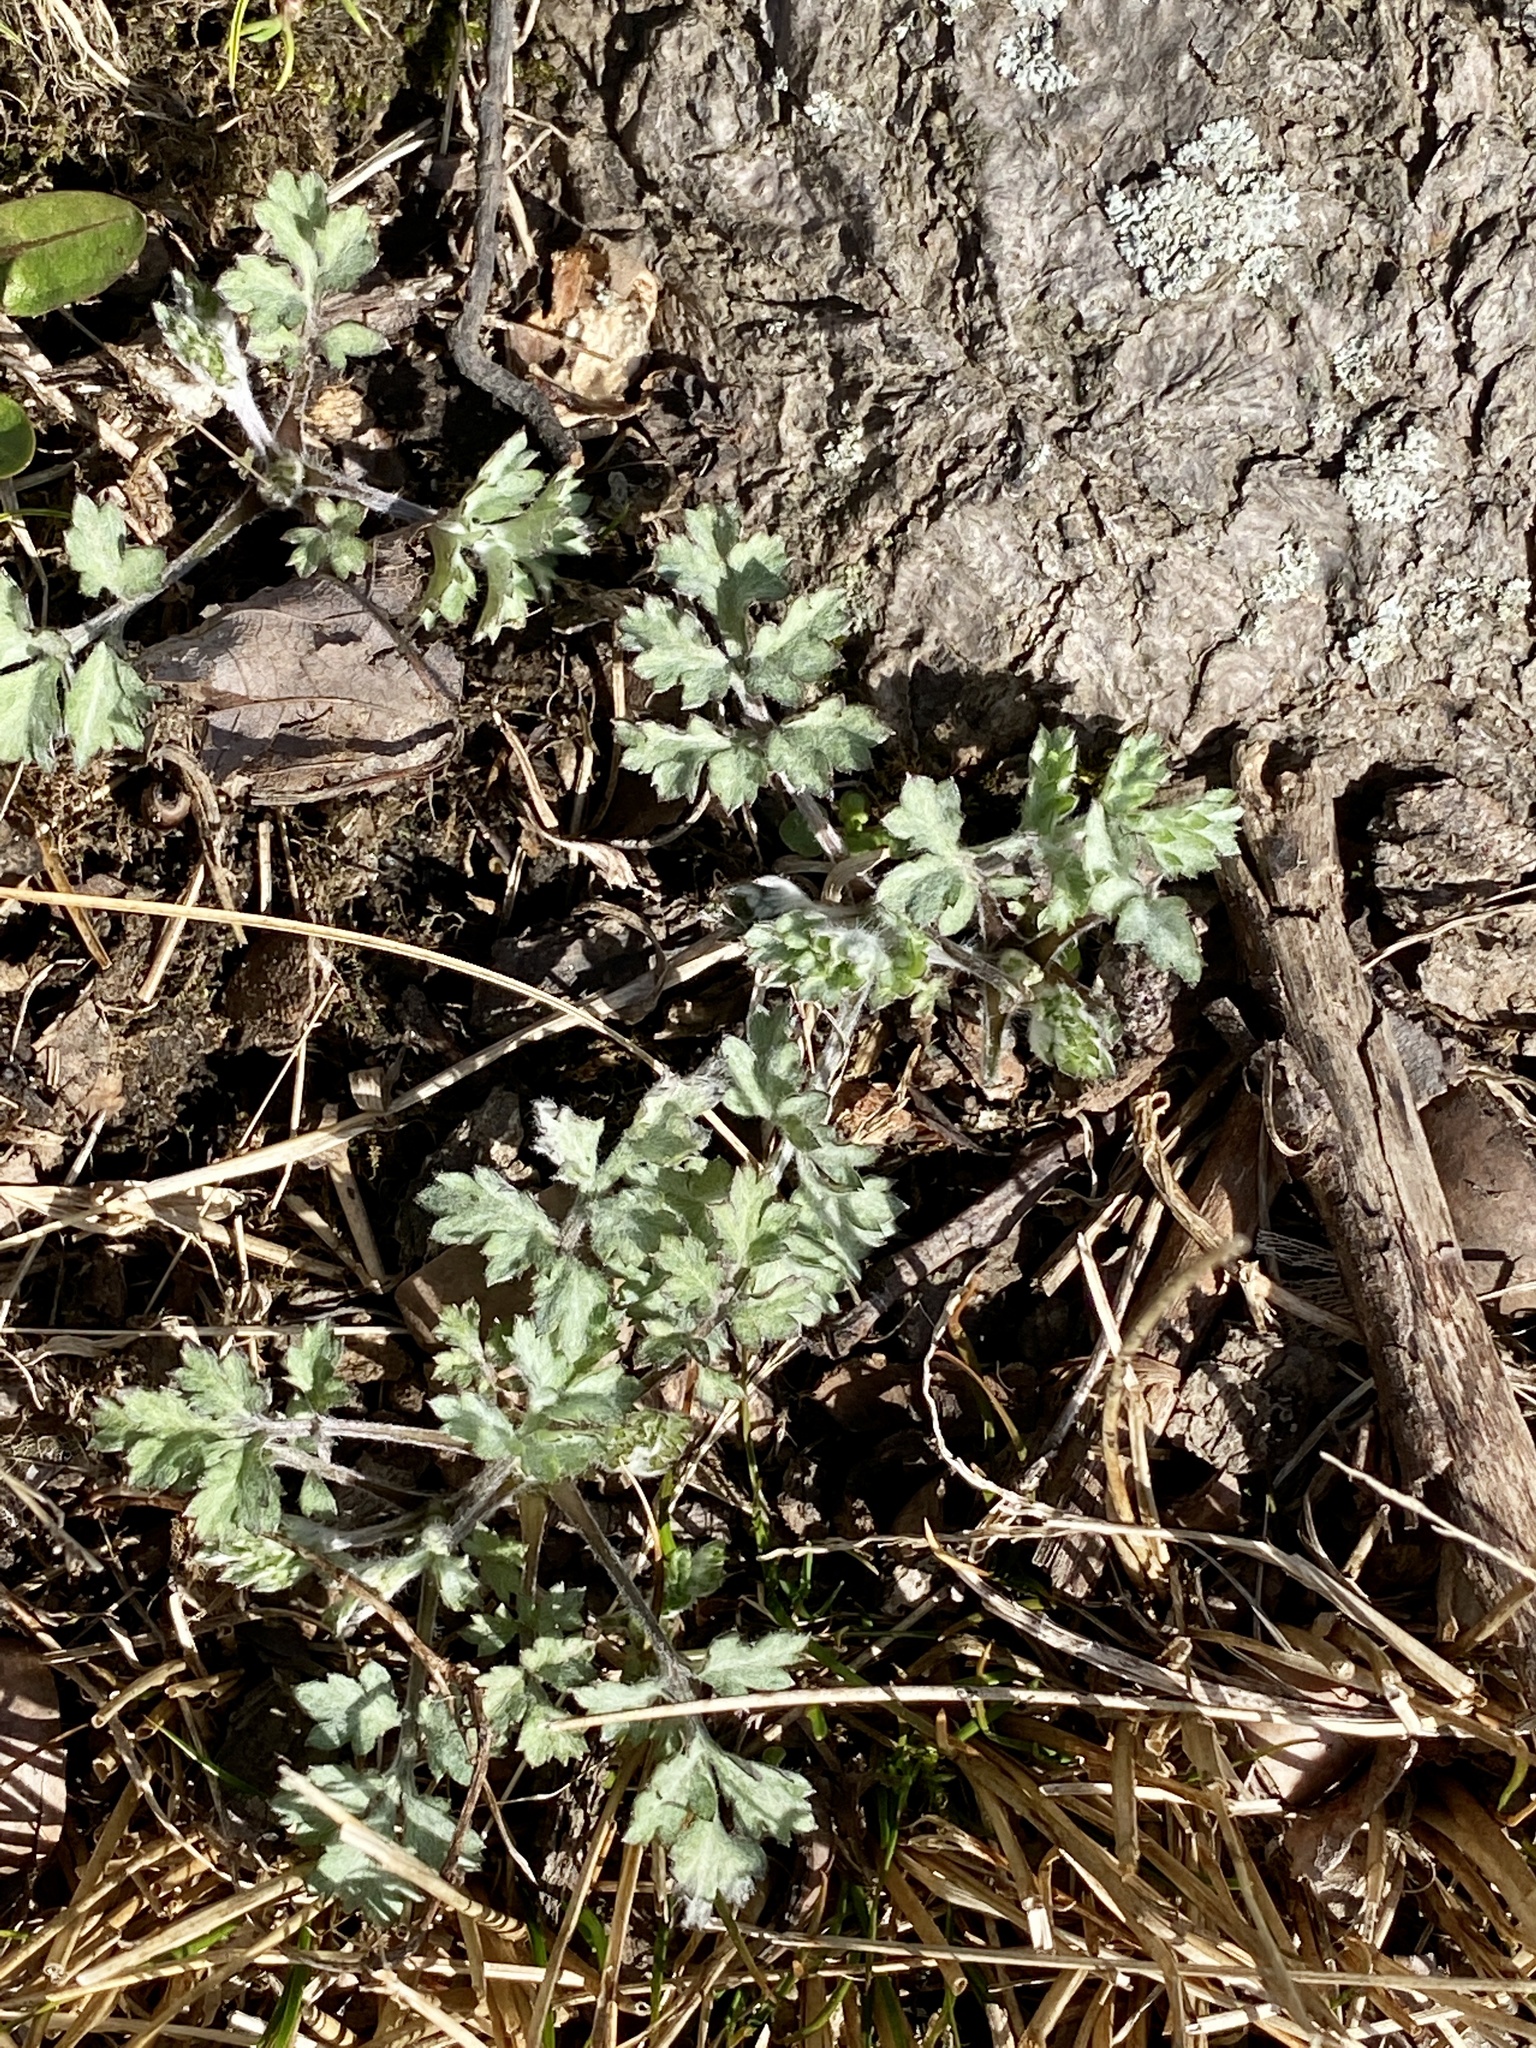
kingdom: Plantae
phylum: Tracheophyta
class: Magnoliopsida
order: Asterales
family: Asteraceae
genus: Artemisia
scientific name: Artemisia vulgaris
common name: Mugwort
